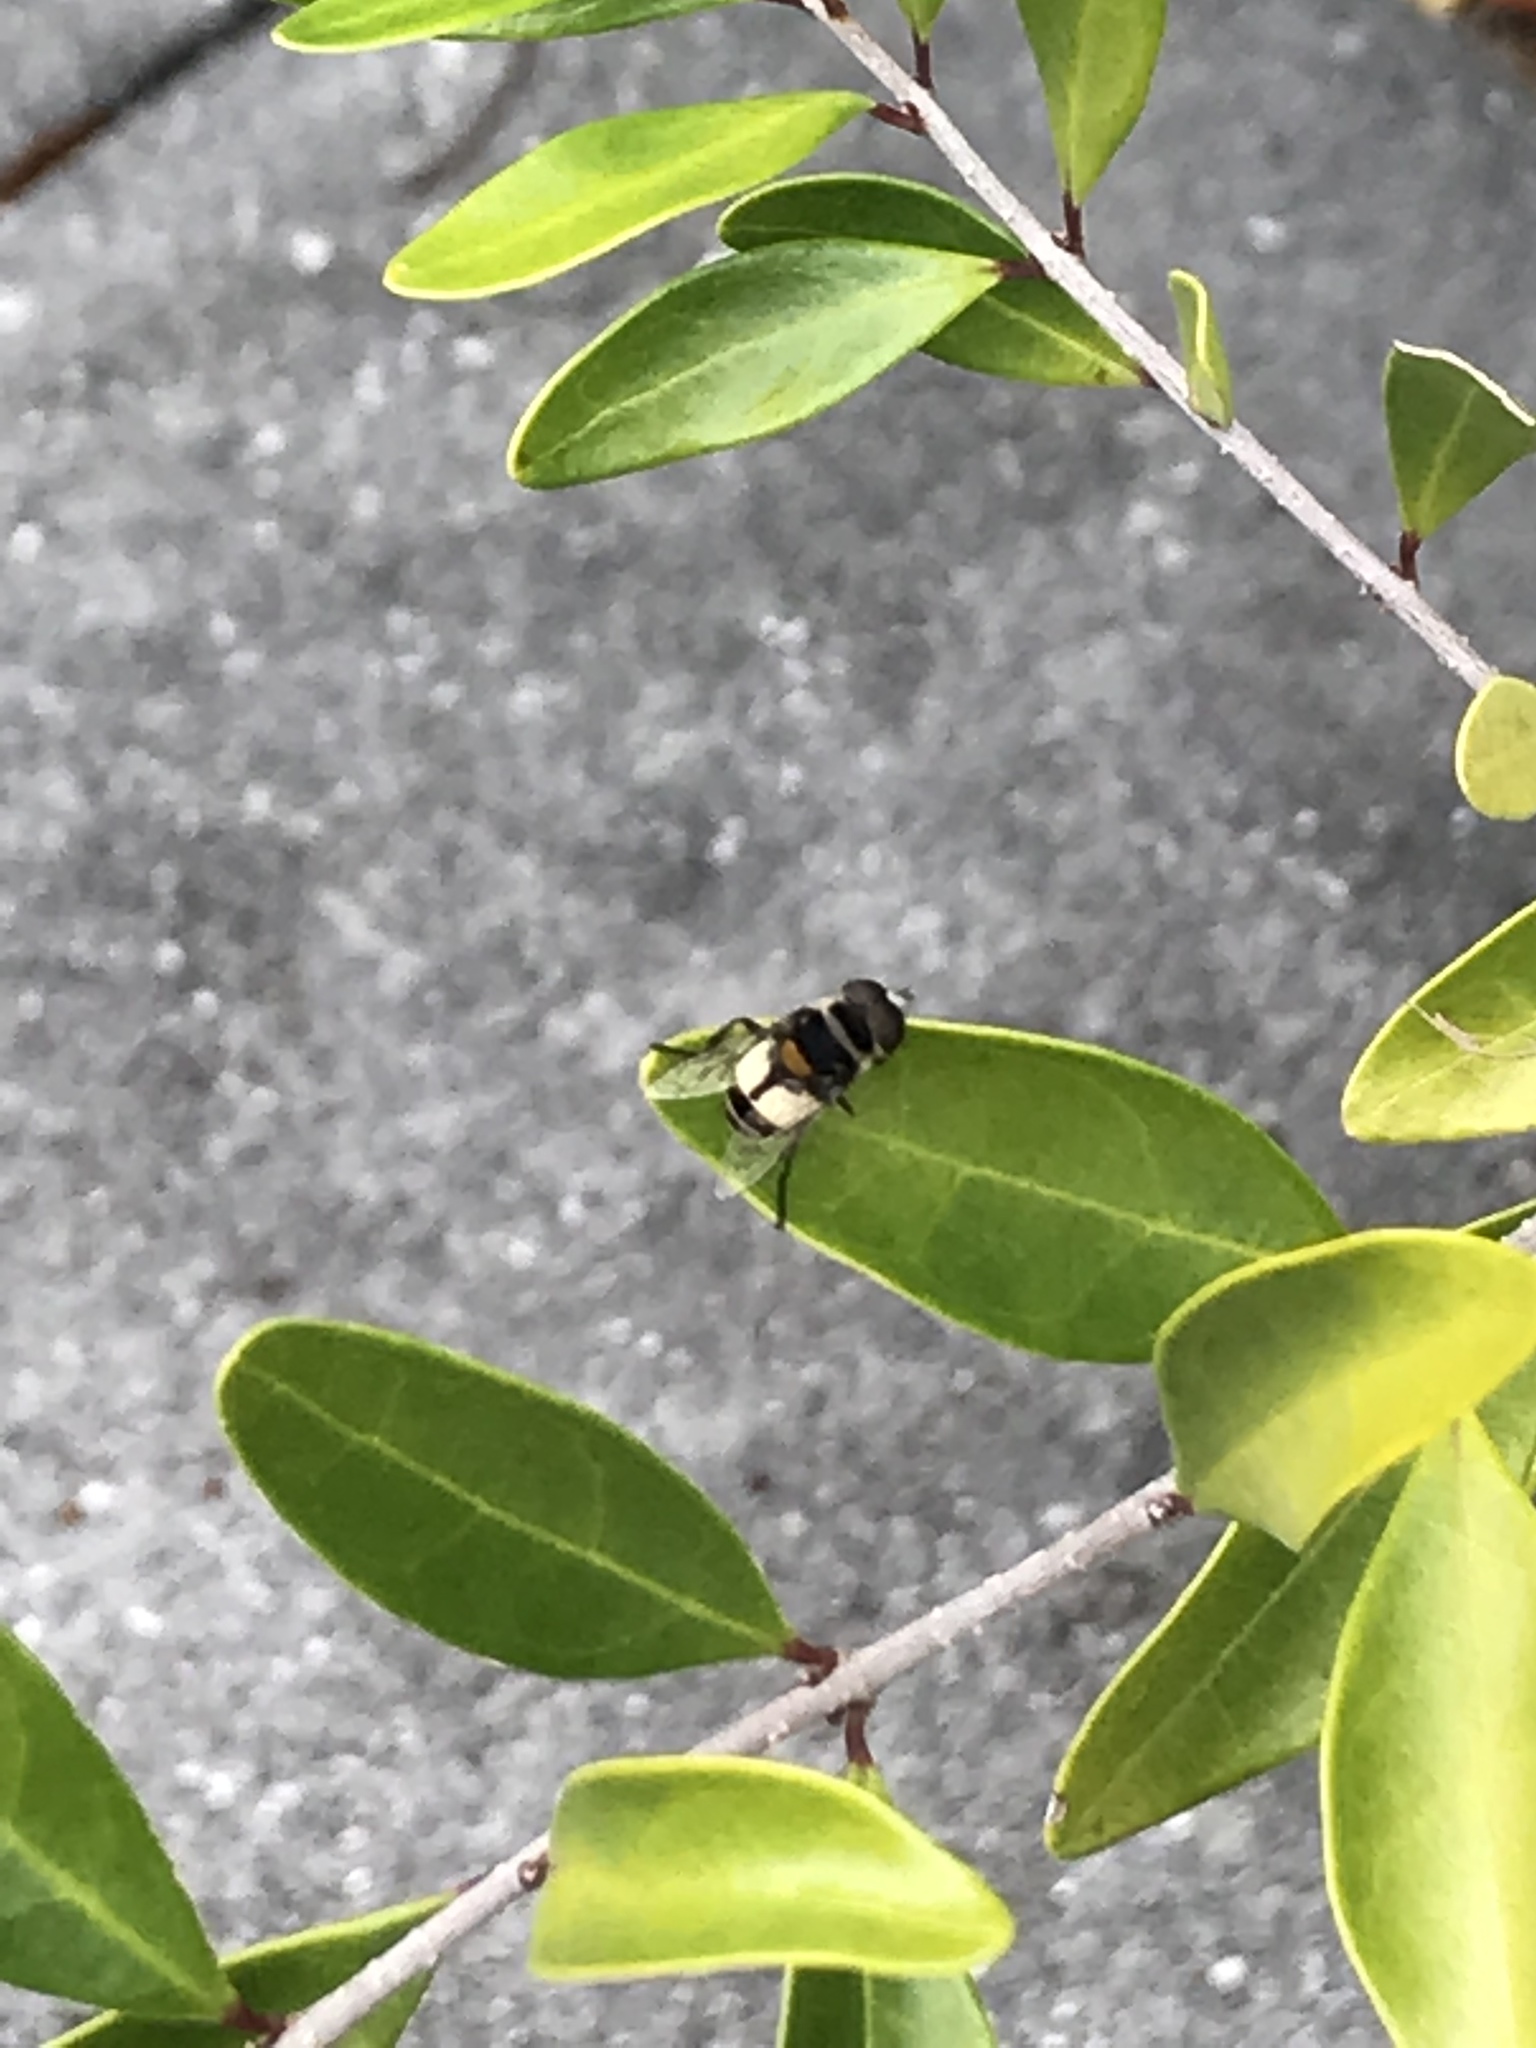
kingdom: Animalia
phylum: Arthropoda
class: Insecta
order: Diptera
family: Syrphidae
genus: Palpada
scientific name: Palpada albifrons
